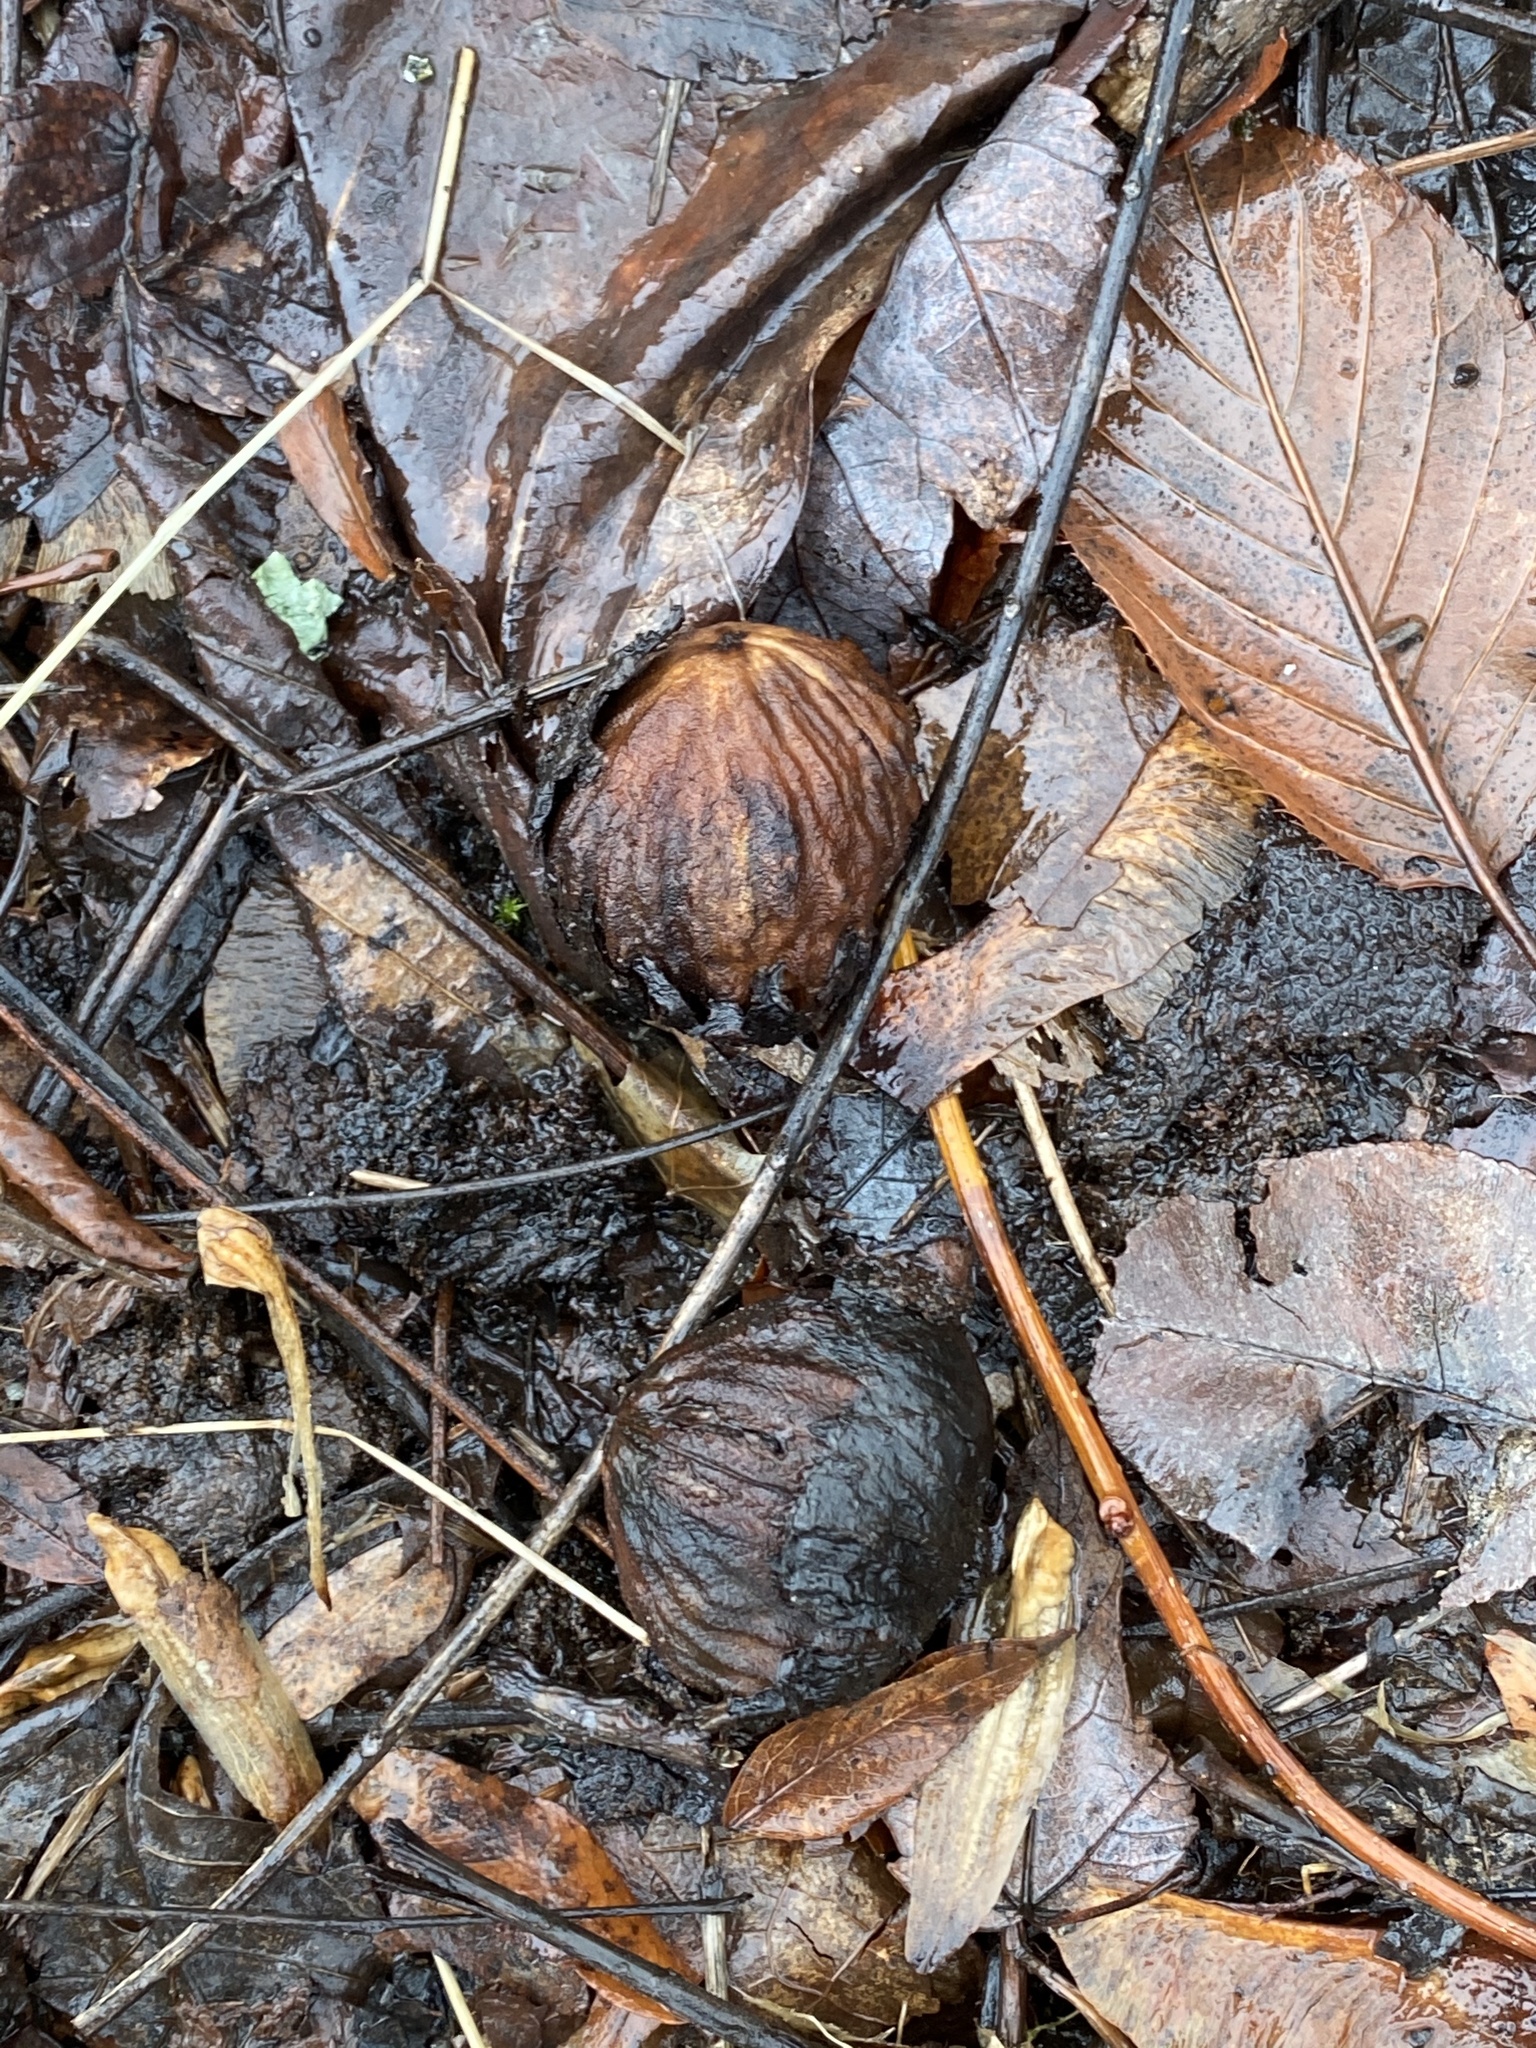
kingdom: Plantae
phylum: Tracheophyta
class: Magnoliopsida
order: Fagales
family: Juglandaceae
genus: Juglans
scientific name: Juglans nigra
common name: Black walnut
